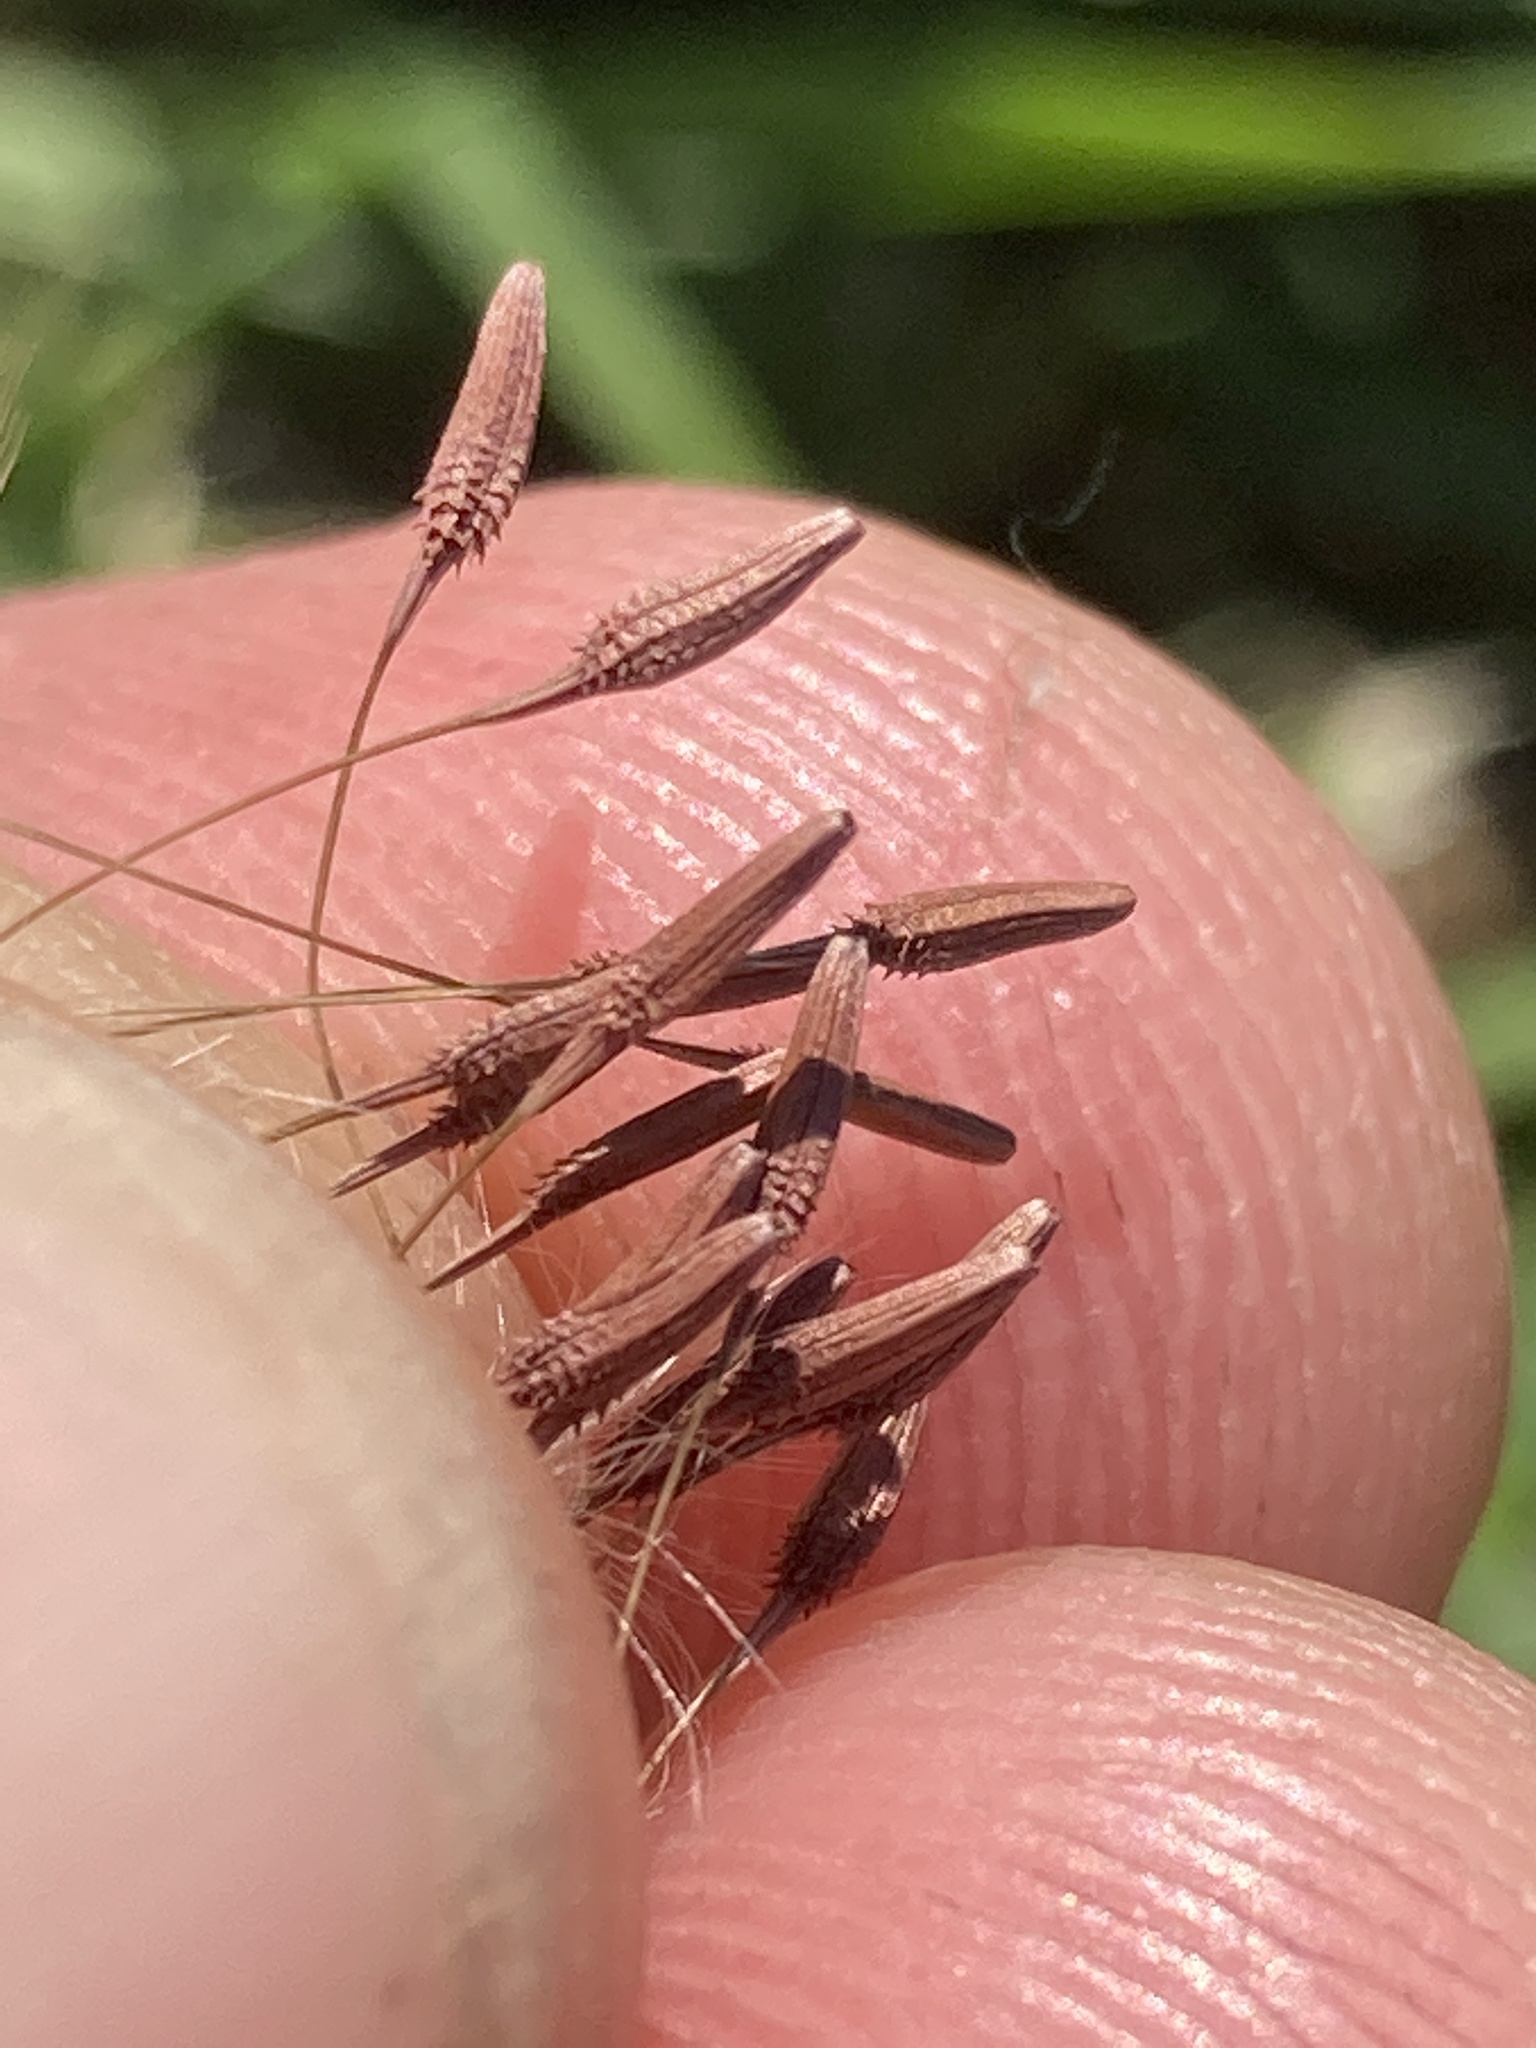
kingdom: Plantae
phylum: Tracheophyta
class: Magnoliopsida
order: Asterales
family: Asteraceae
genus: Taraxacum
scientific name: Taraxacum erythrospermum
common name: Rock dandelion
